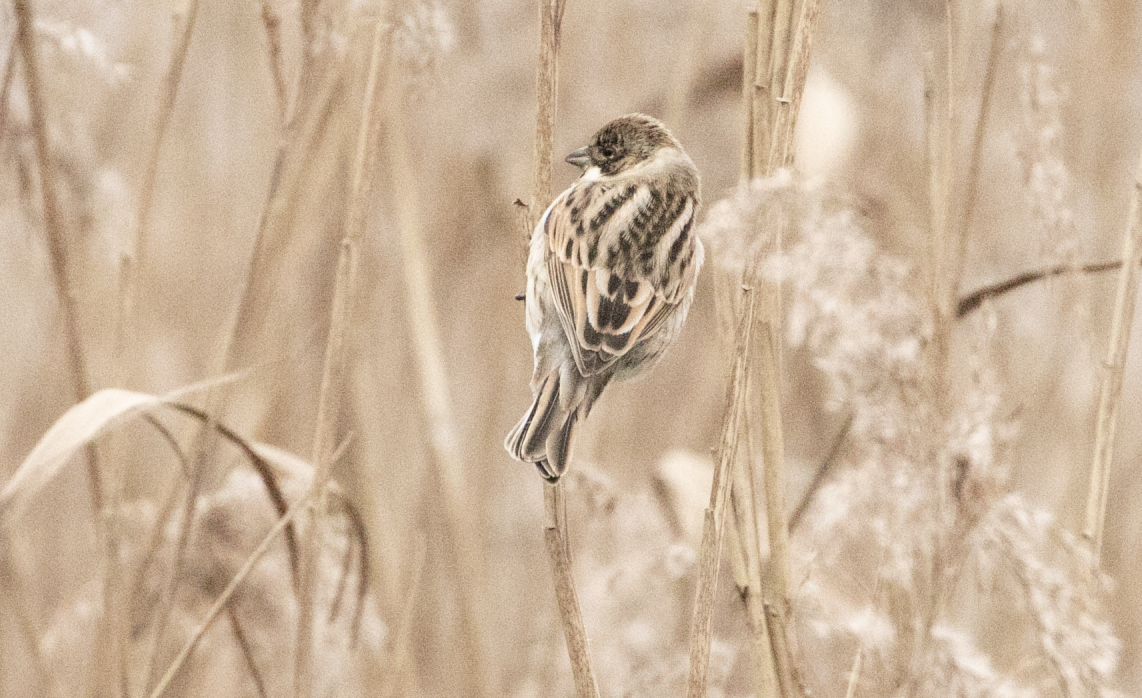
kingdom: Animalia
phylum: Chordata
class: Aves
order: Passeriformes
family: Emberizidae
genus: Emberiza
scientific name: Emberiza schoeniclus
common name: Reed bunting
